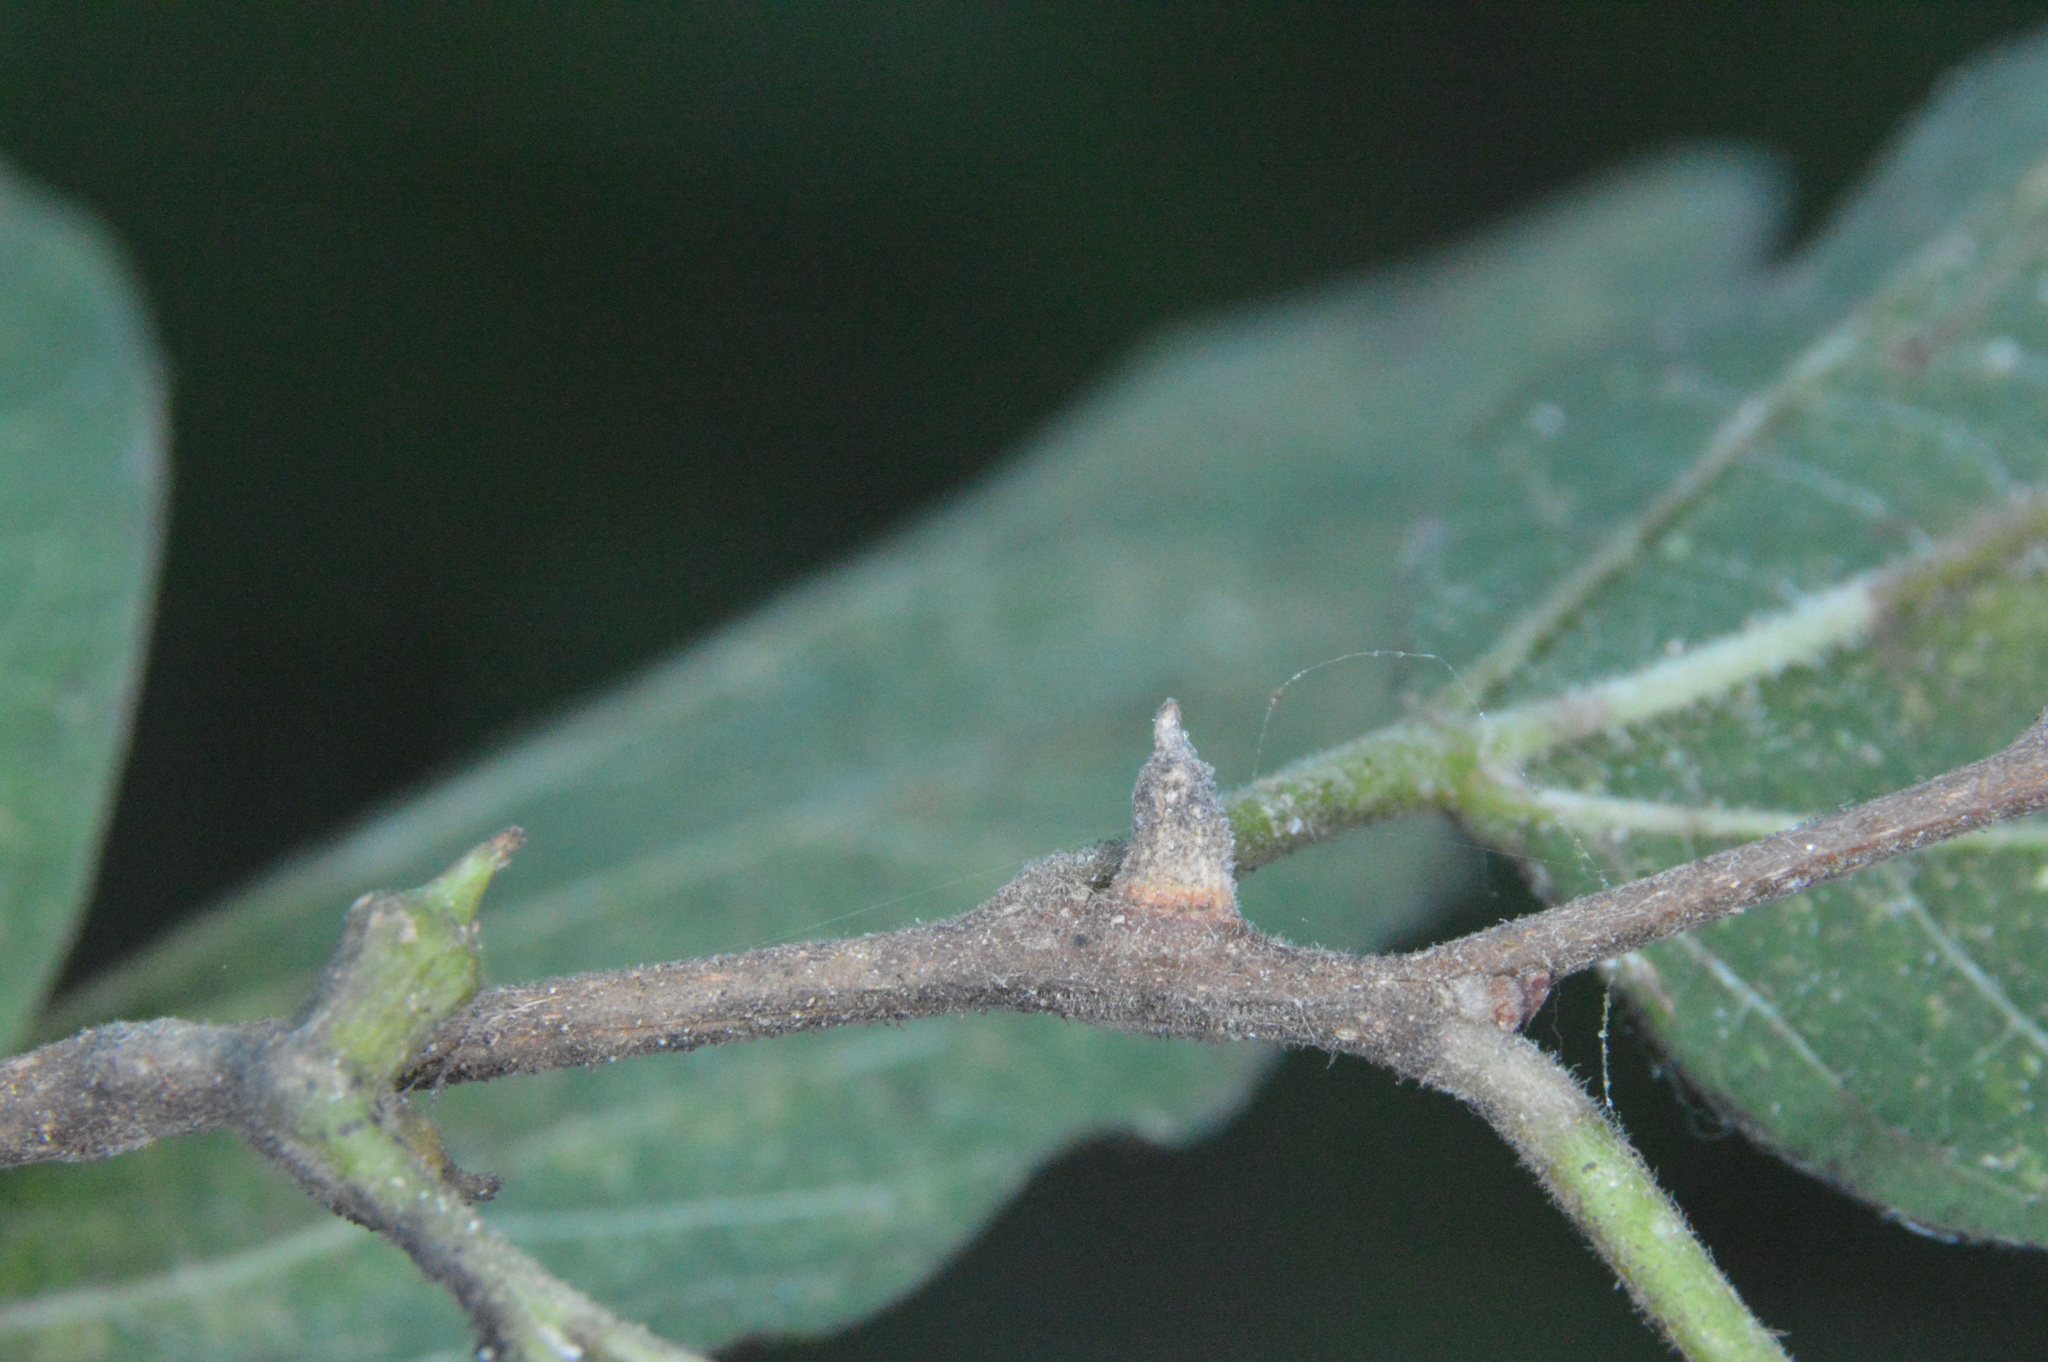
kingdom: Animalia
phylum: Arthropoda
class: Insecta
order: Diptera
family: Cecidomyiidae
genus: Celticecis
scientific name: Celticecis ramicola
